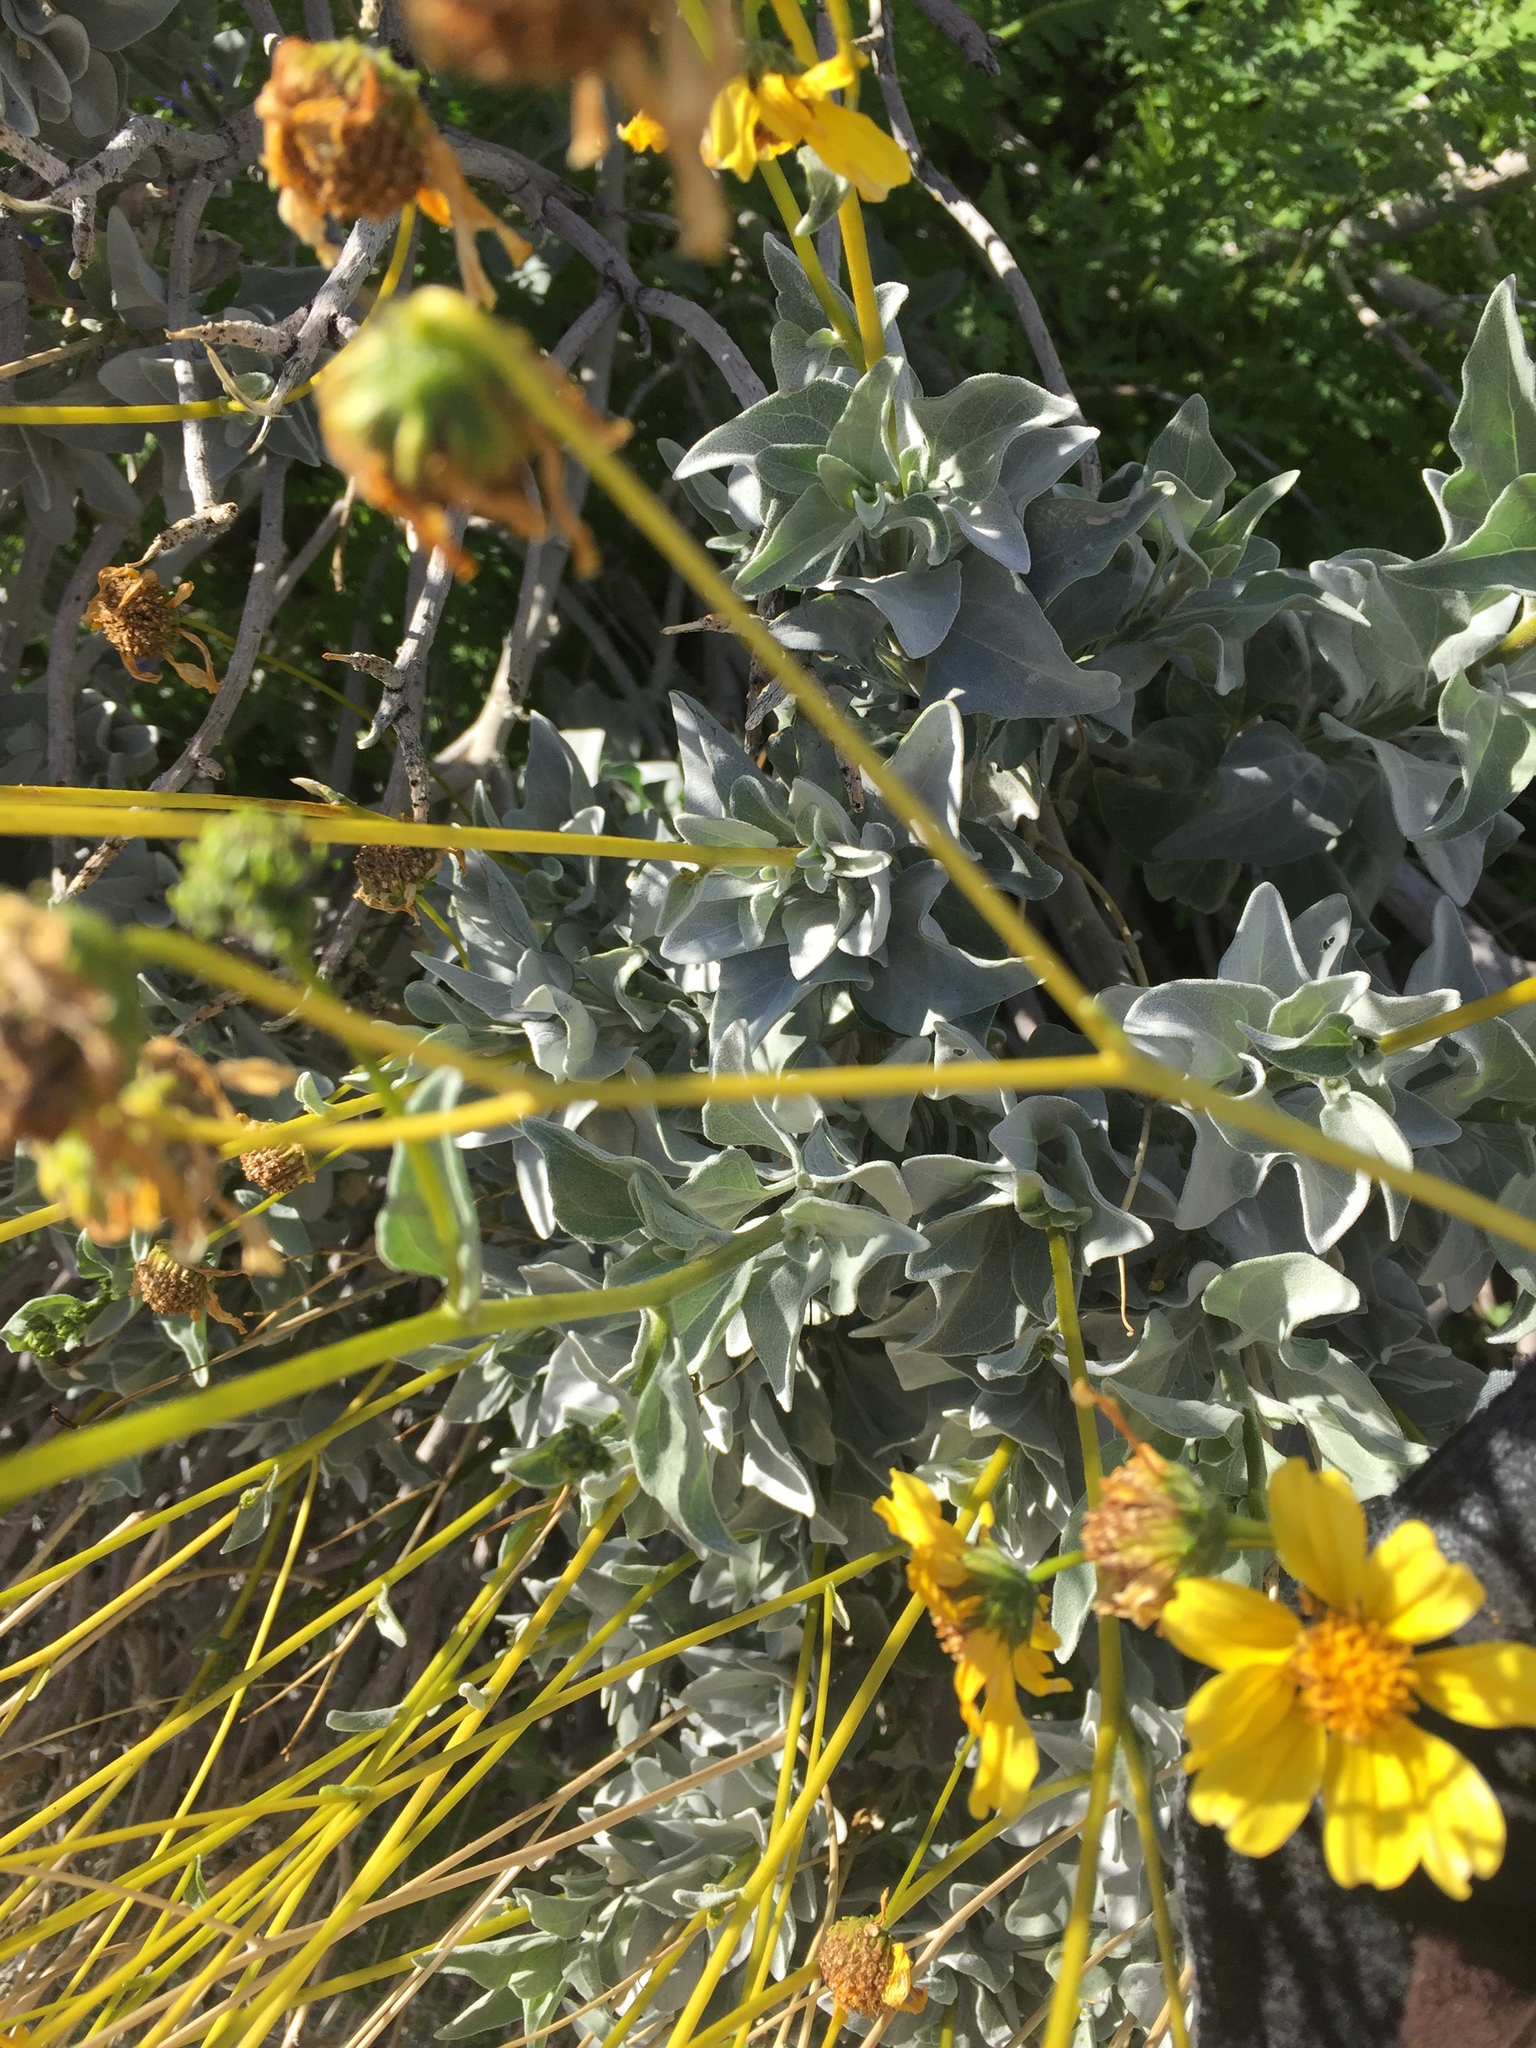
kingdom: Plantae
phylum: Tracheophyta
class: Magnoliopsida
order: Asterales
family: Asteraceae
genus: Encelia
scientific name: Encelia farinosa
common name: Brittlebush
